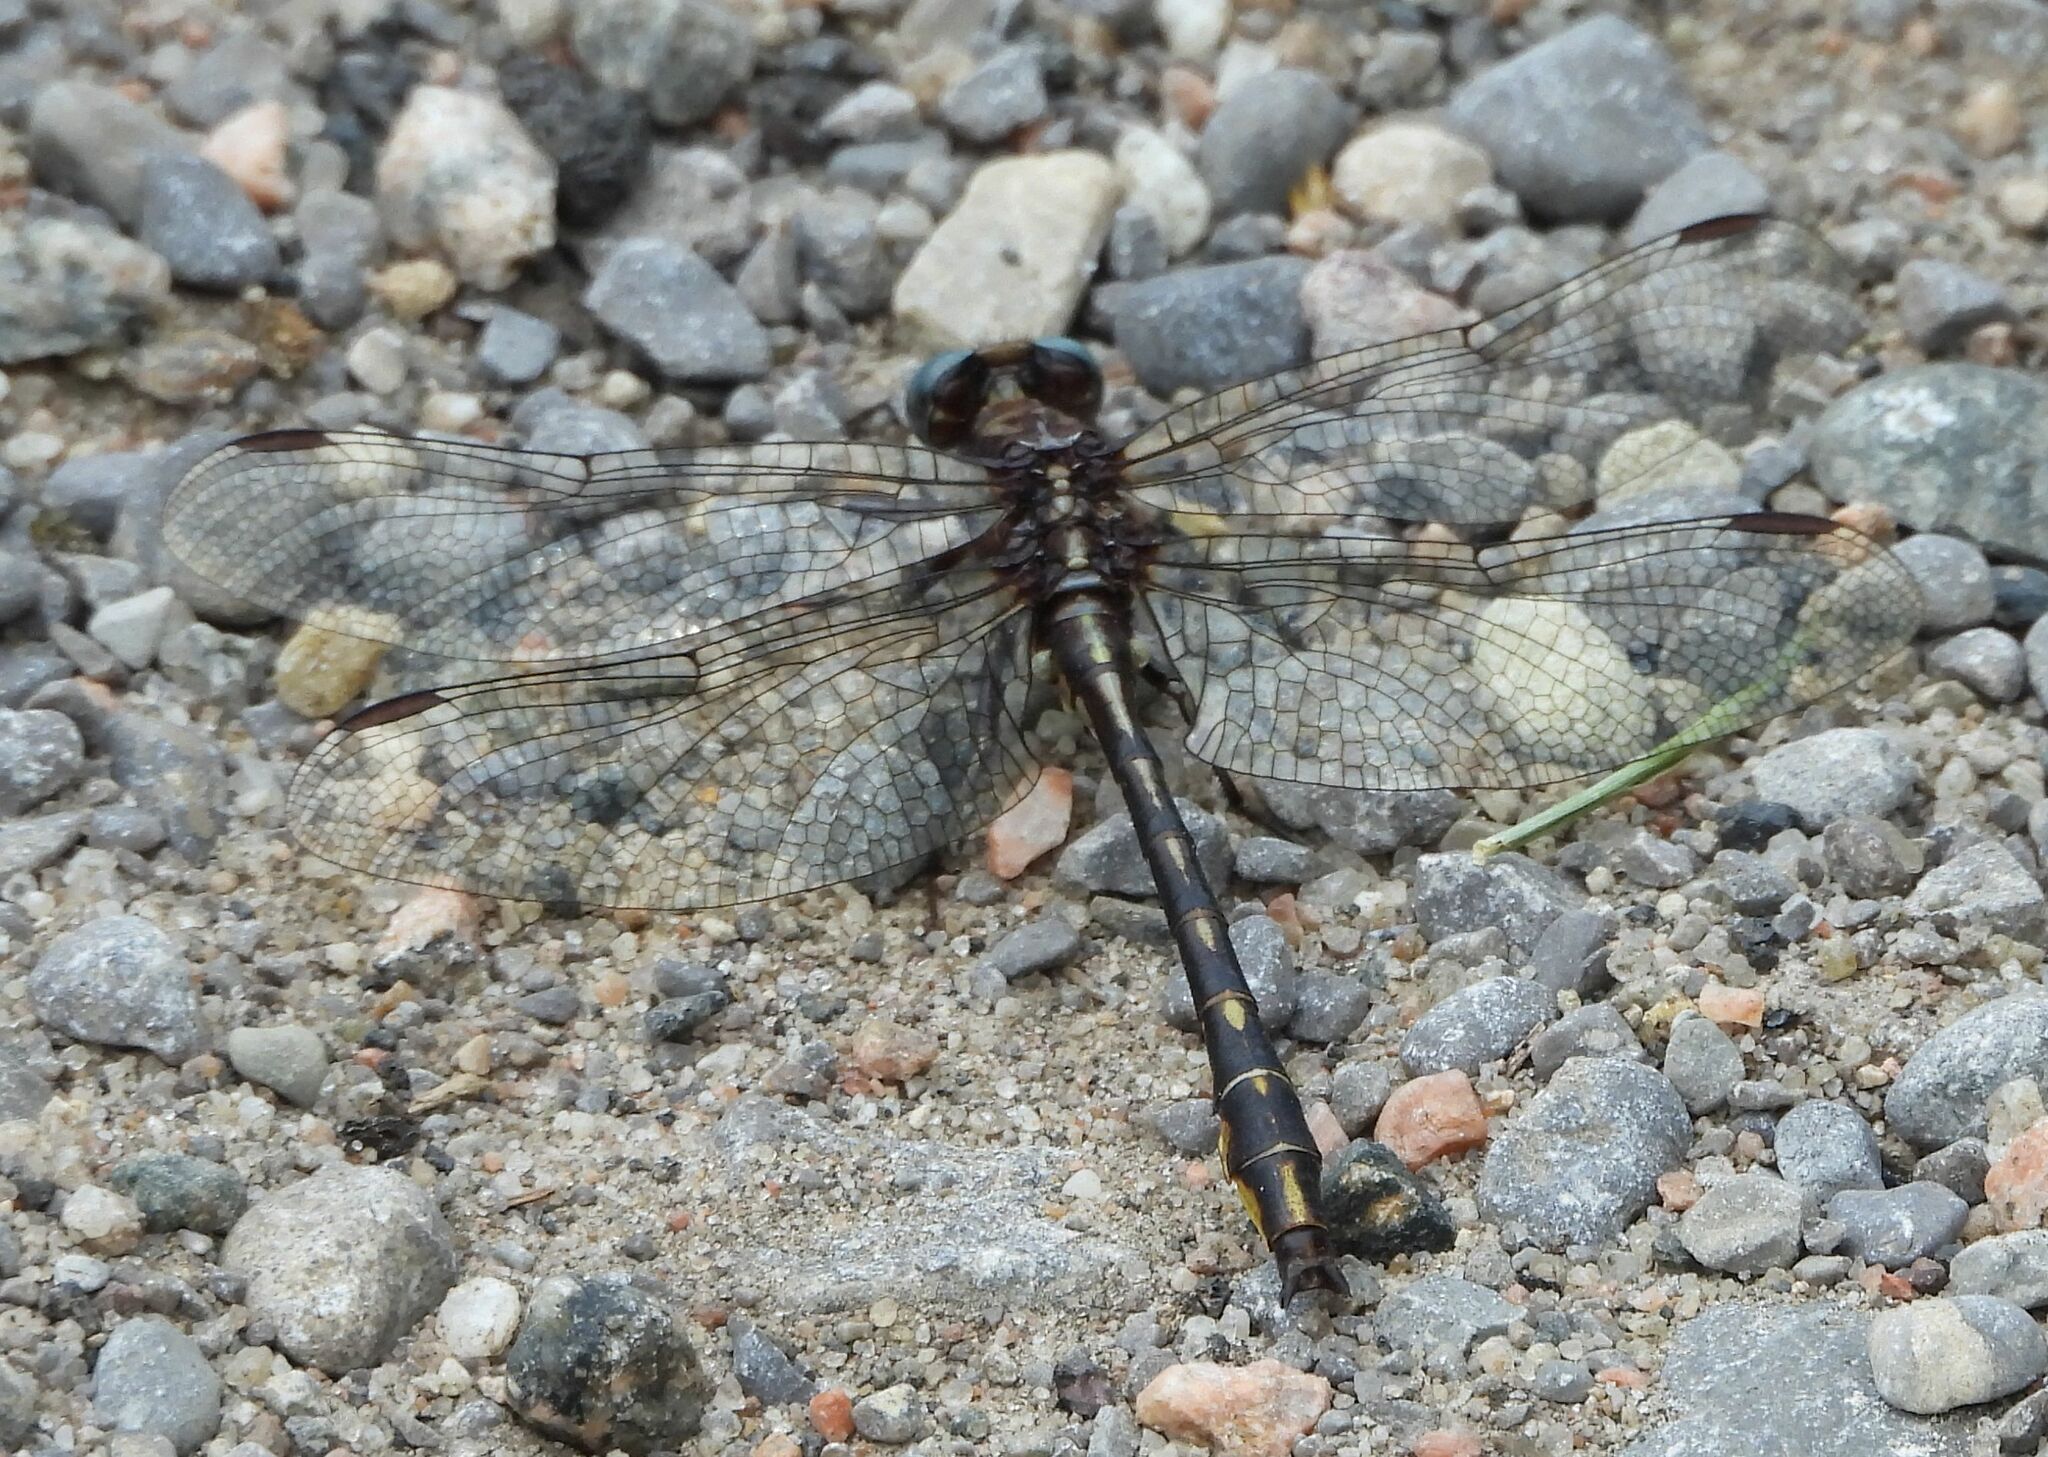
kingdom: Animalia
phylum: Arthropoda
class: Insecta
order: Odonata
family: Gomphidae
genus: Phanogomphus
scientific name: Phanogomphus exilis
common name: Lancet clubtail
